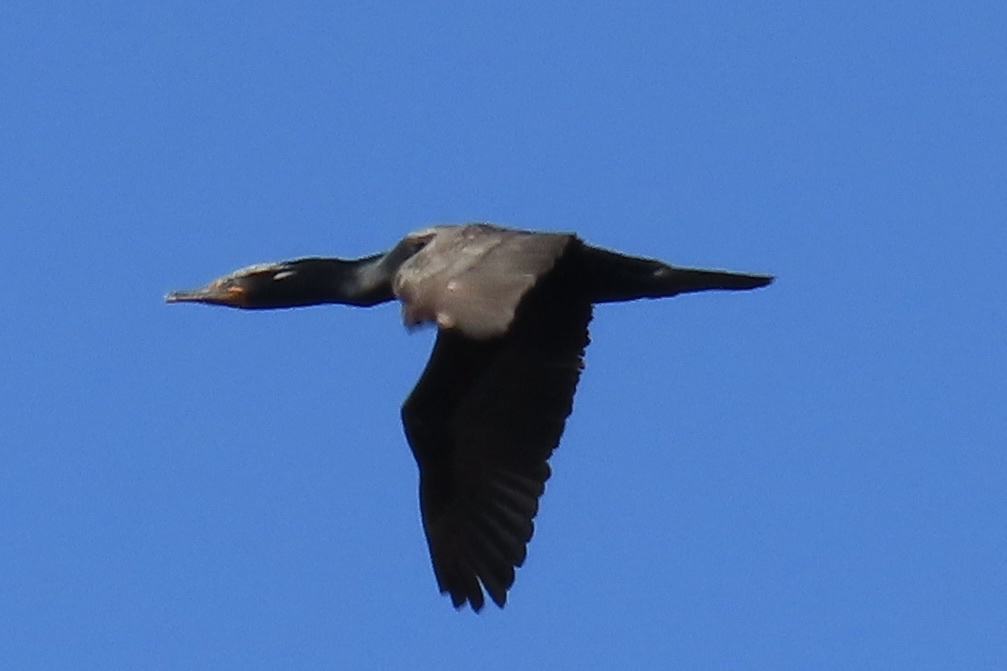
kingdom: Animalia
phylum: Chordata
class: Aves
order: Suliformes
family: Phalacrocoracidae
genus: Phalacrocorax
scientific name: Phalacrocorax auritus
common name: Double-crested cormorant
